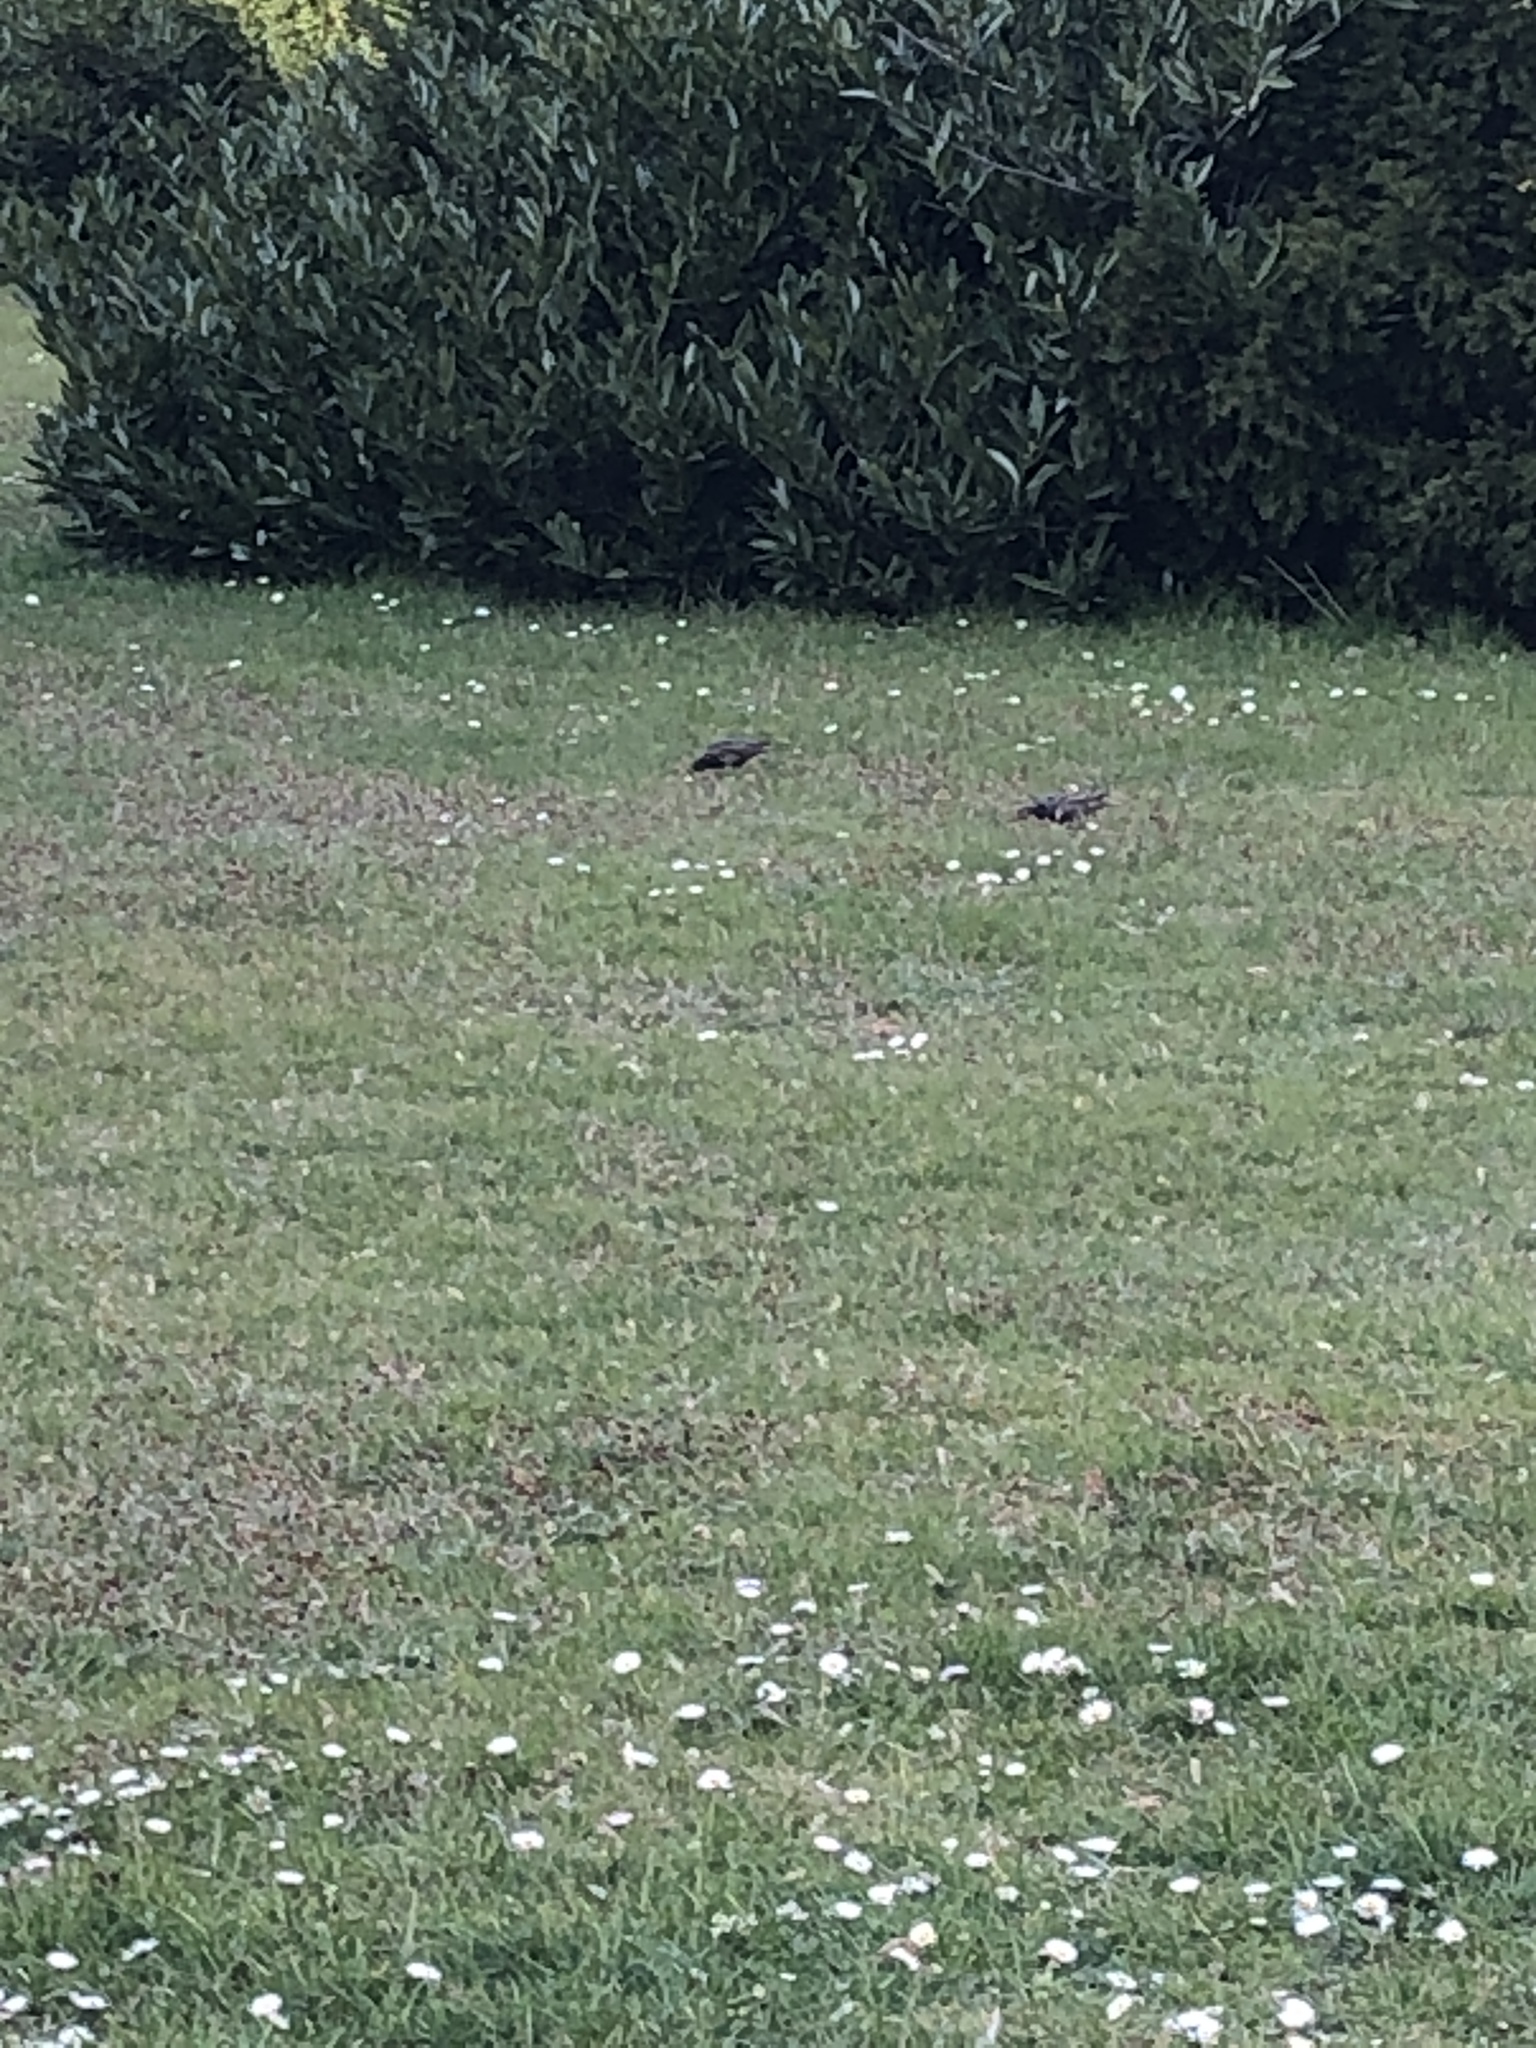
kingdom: Animalia
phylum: Chordata
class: Aves
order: Passeriformes
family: Sturnidae
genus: Sturnus
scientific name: Sturnus vulgaris
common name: Common starling
